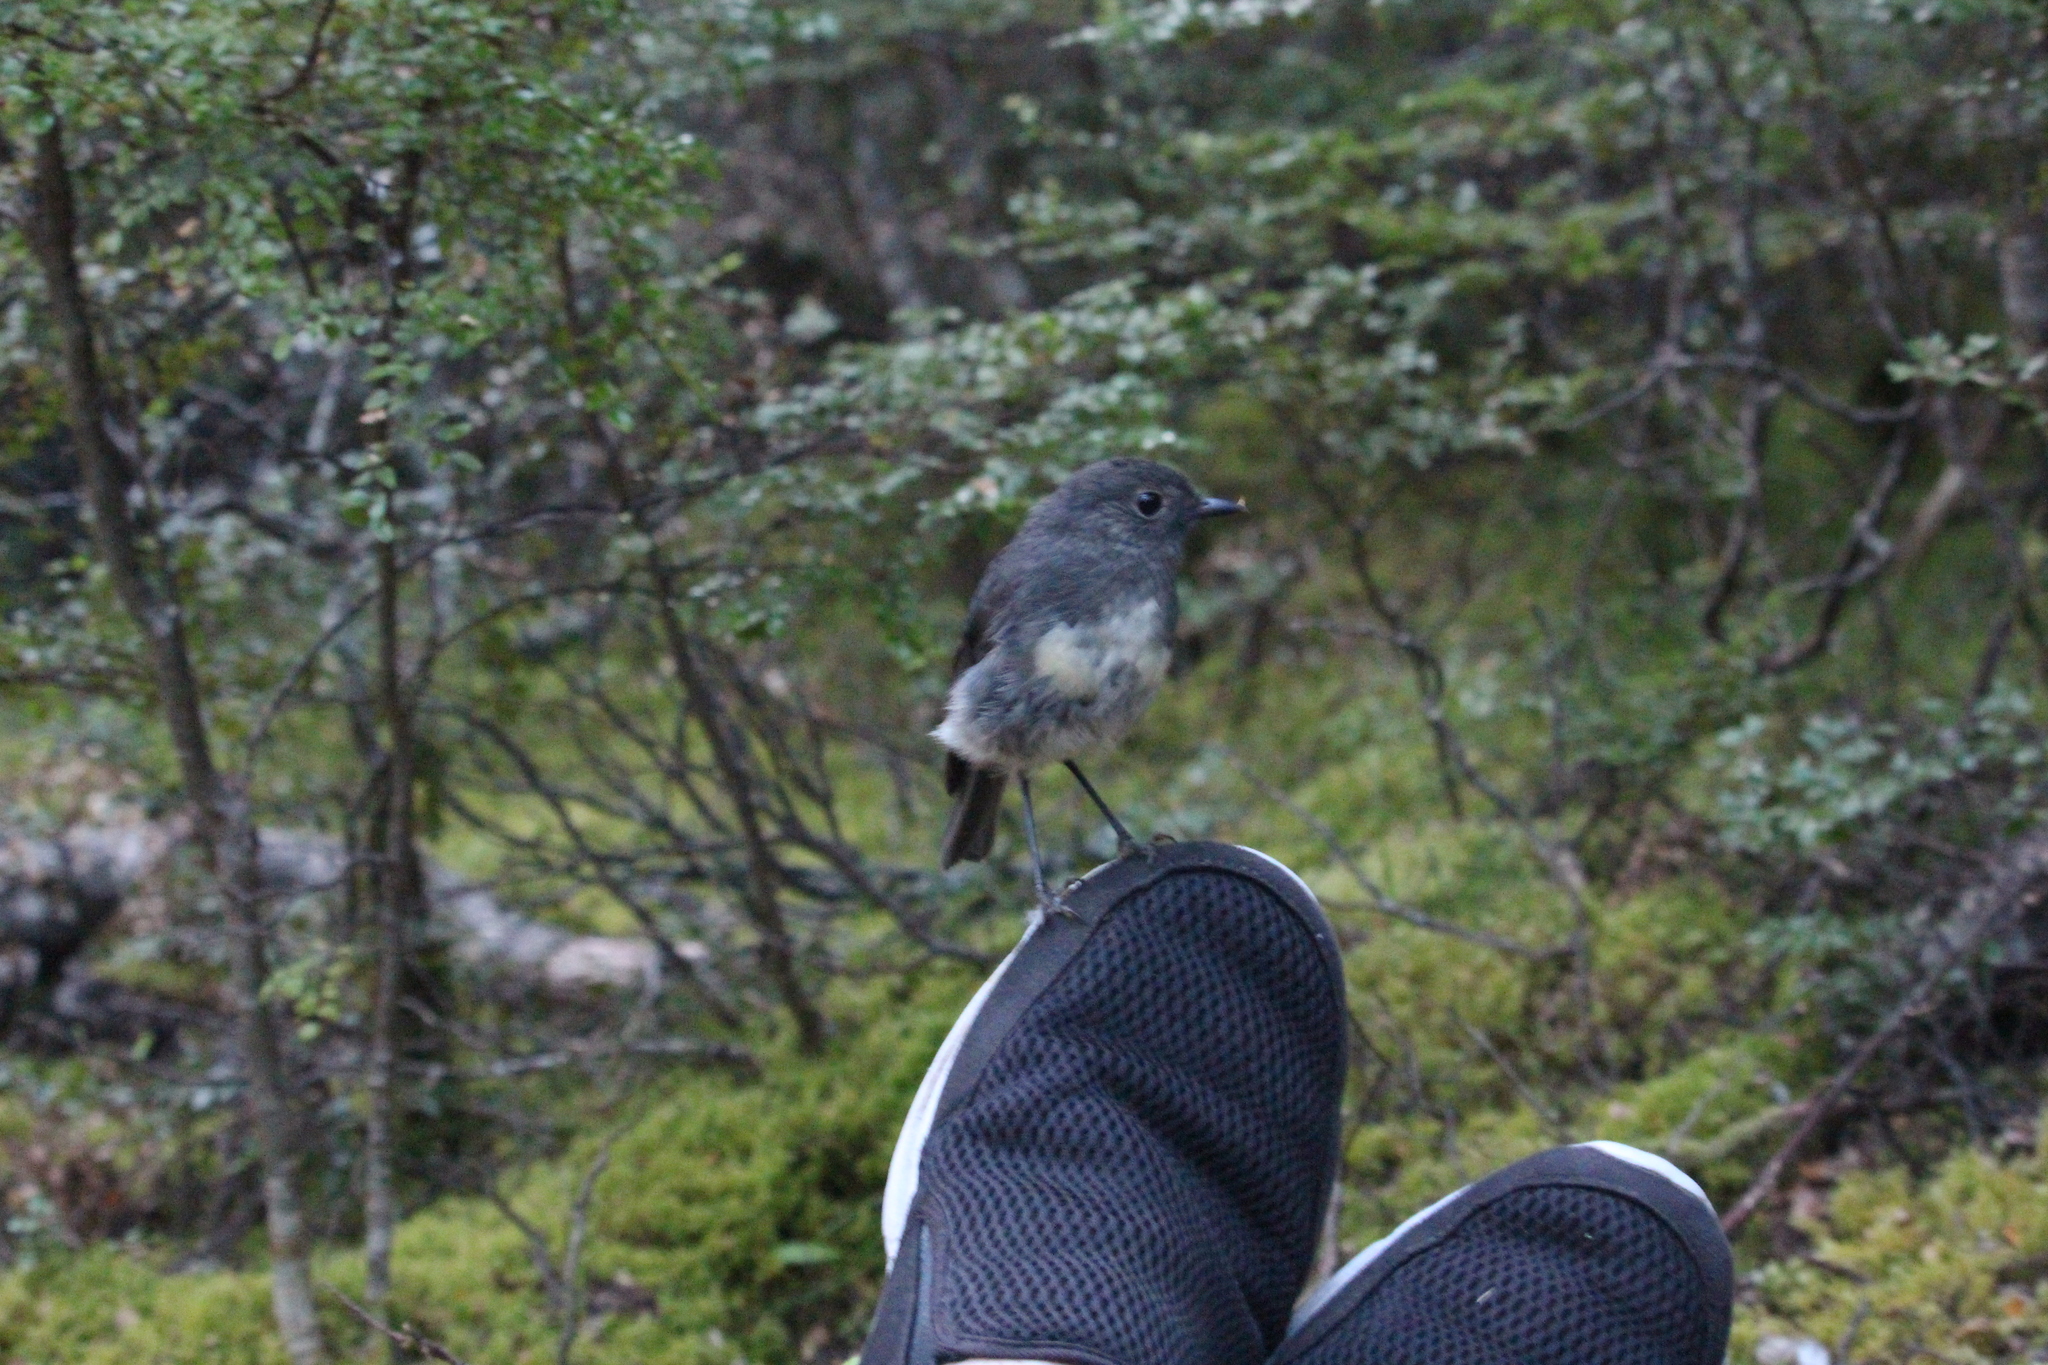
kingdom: Animalia
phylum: Chordata
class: Aves
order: Passeriformes
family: Petroicidae
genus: Petroica
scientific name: Petroica australis
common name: New zealand robin
